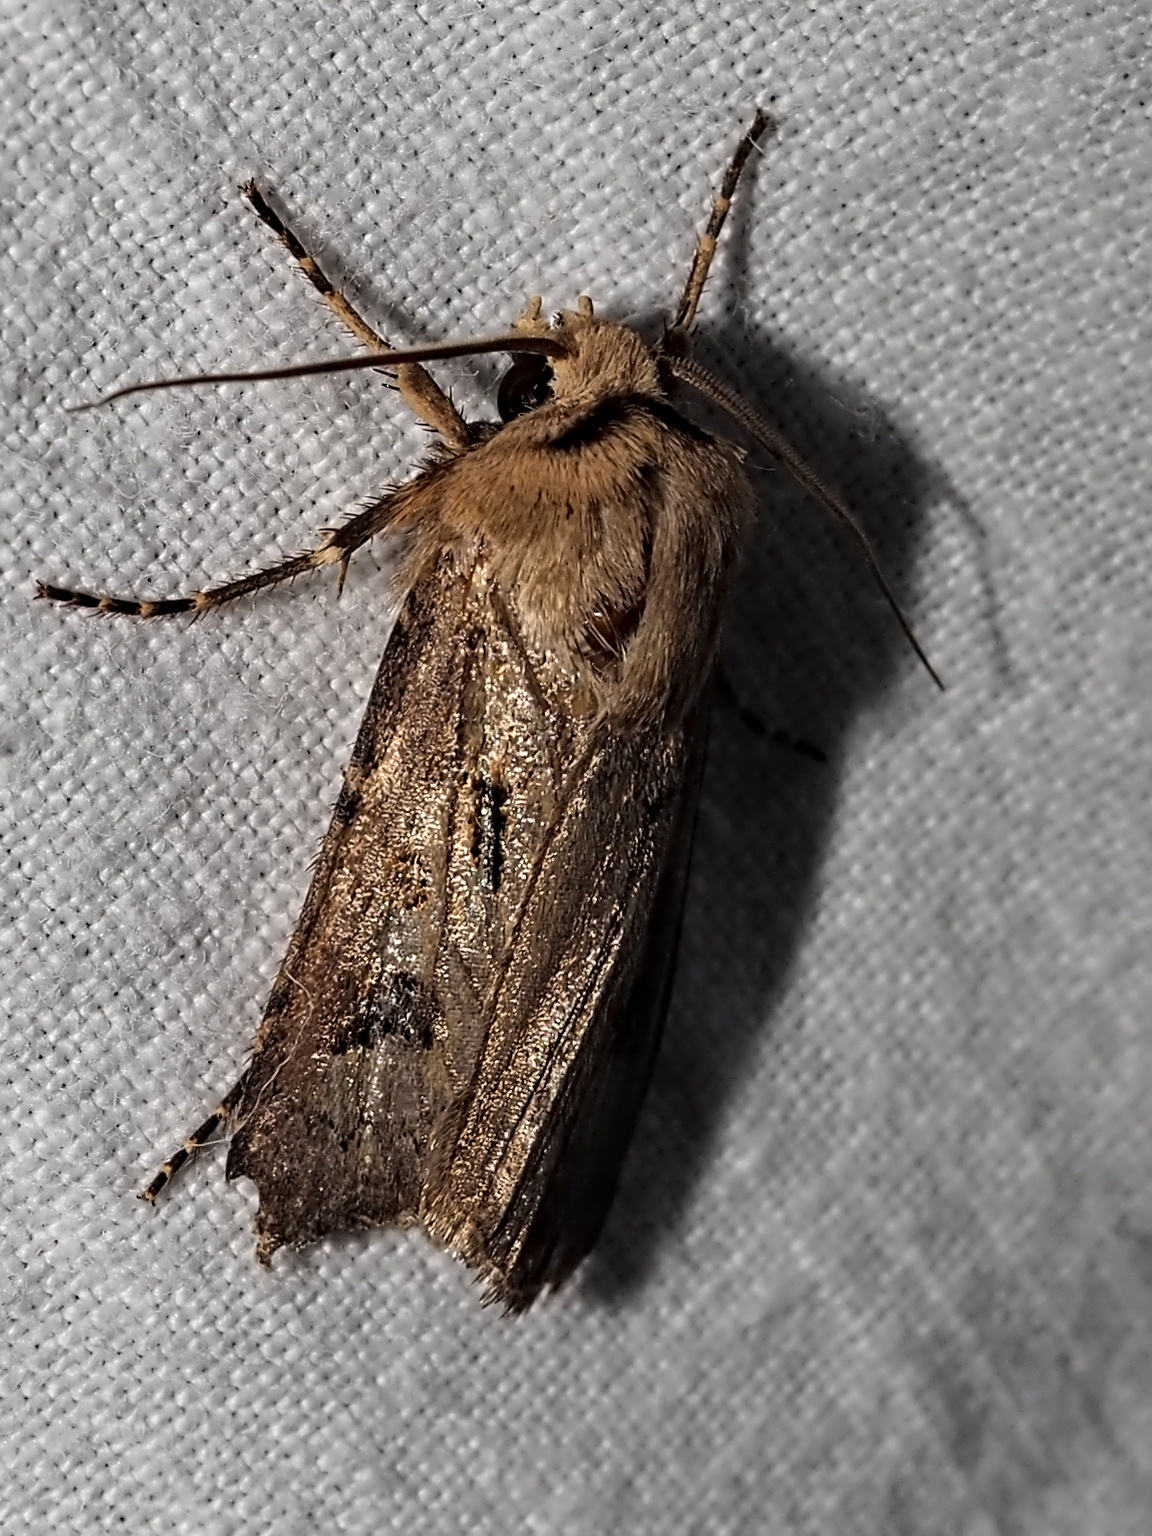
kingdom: Animalia
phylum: Arthropoda
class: Insecta
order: Lepidoptera
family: Noctuidae
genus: Agrotis
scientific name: Agrotis exclamationis
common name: Heart and dart
